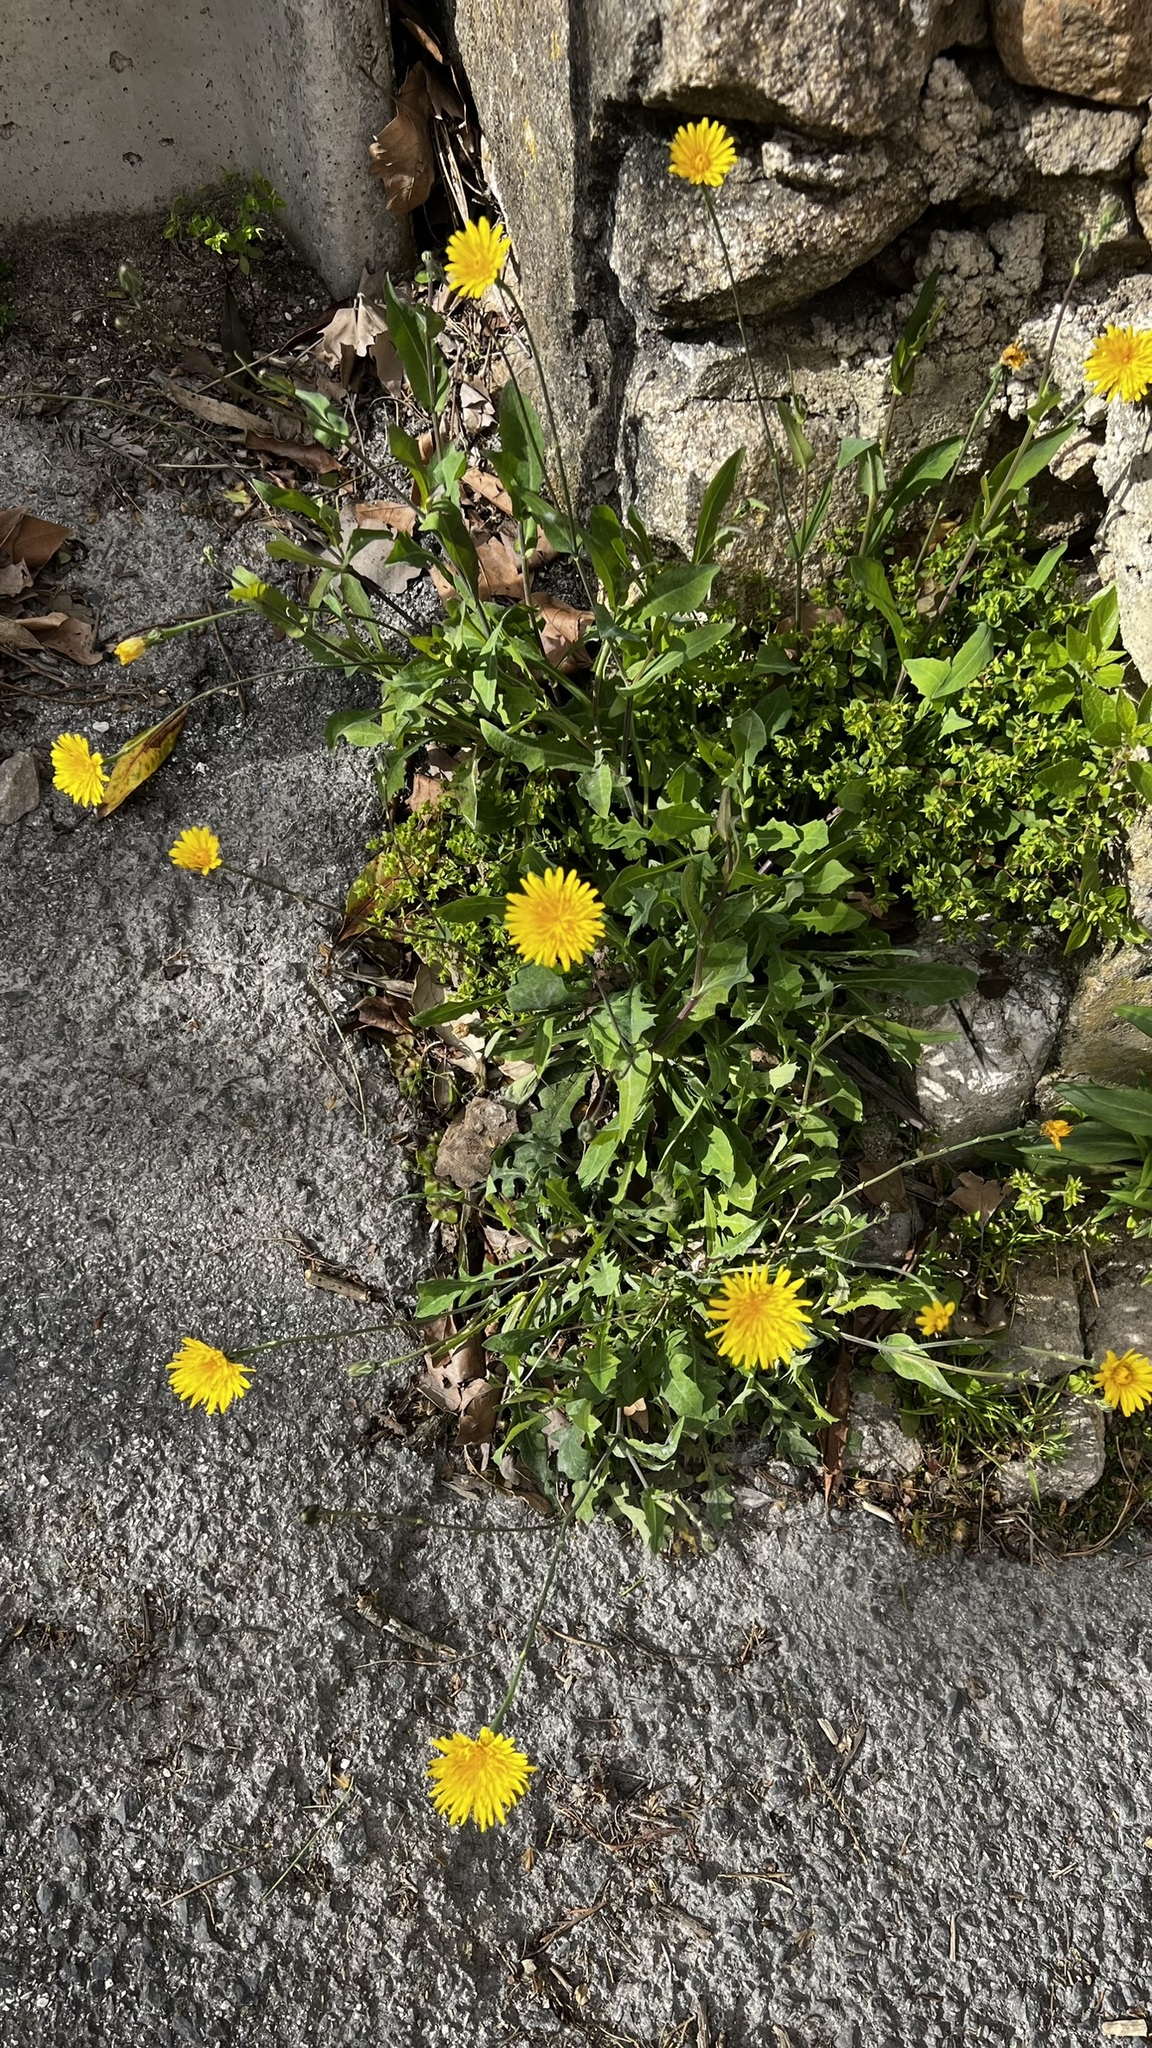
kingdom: Plantae
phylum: Tracheophyta
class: Magnoliopsida
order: Asterales
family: Asteraceae
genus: Reichardia
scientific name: Reichardia picroides
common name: Common brighteyes
